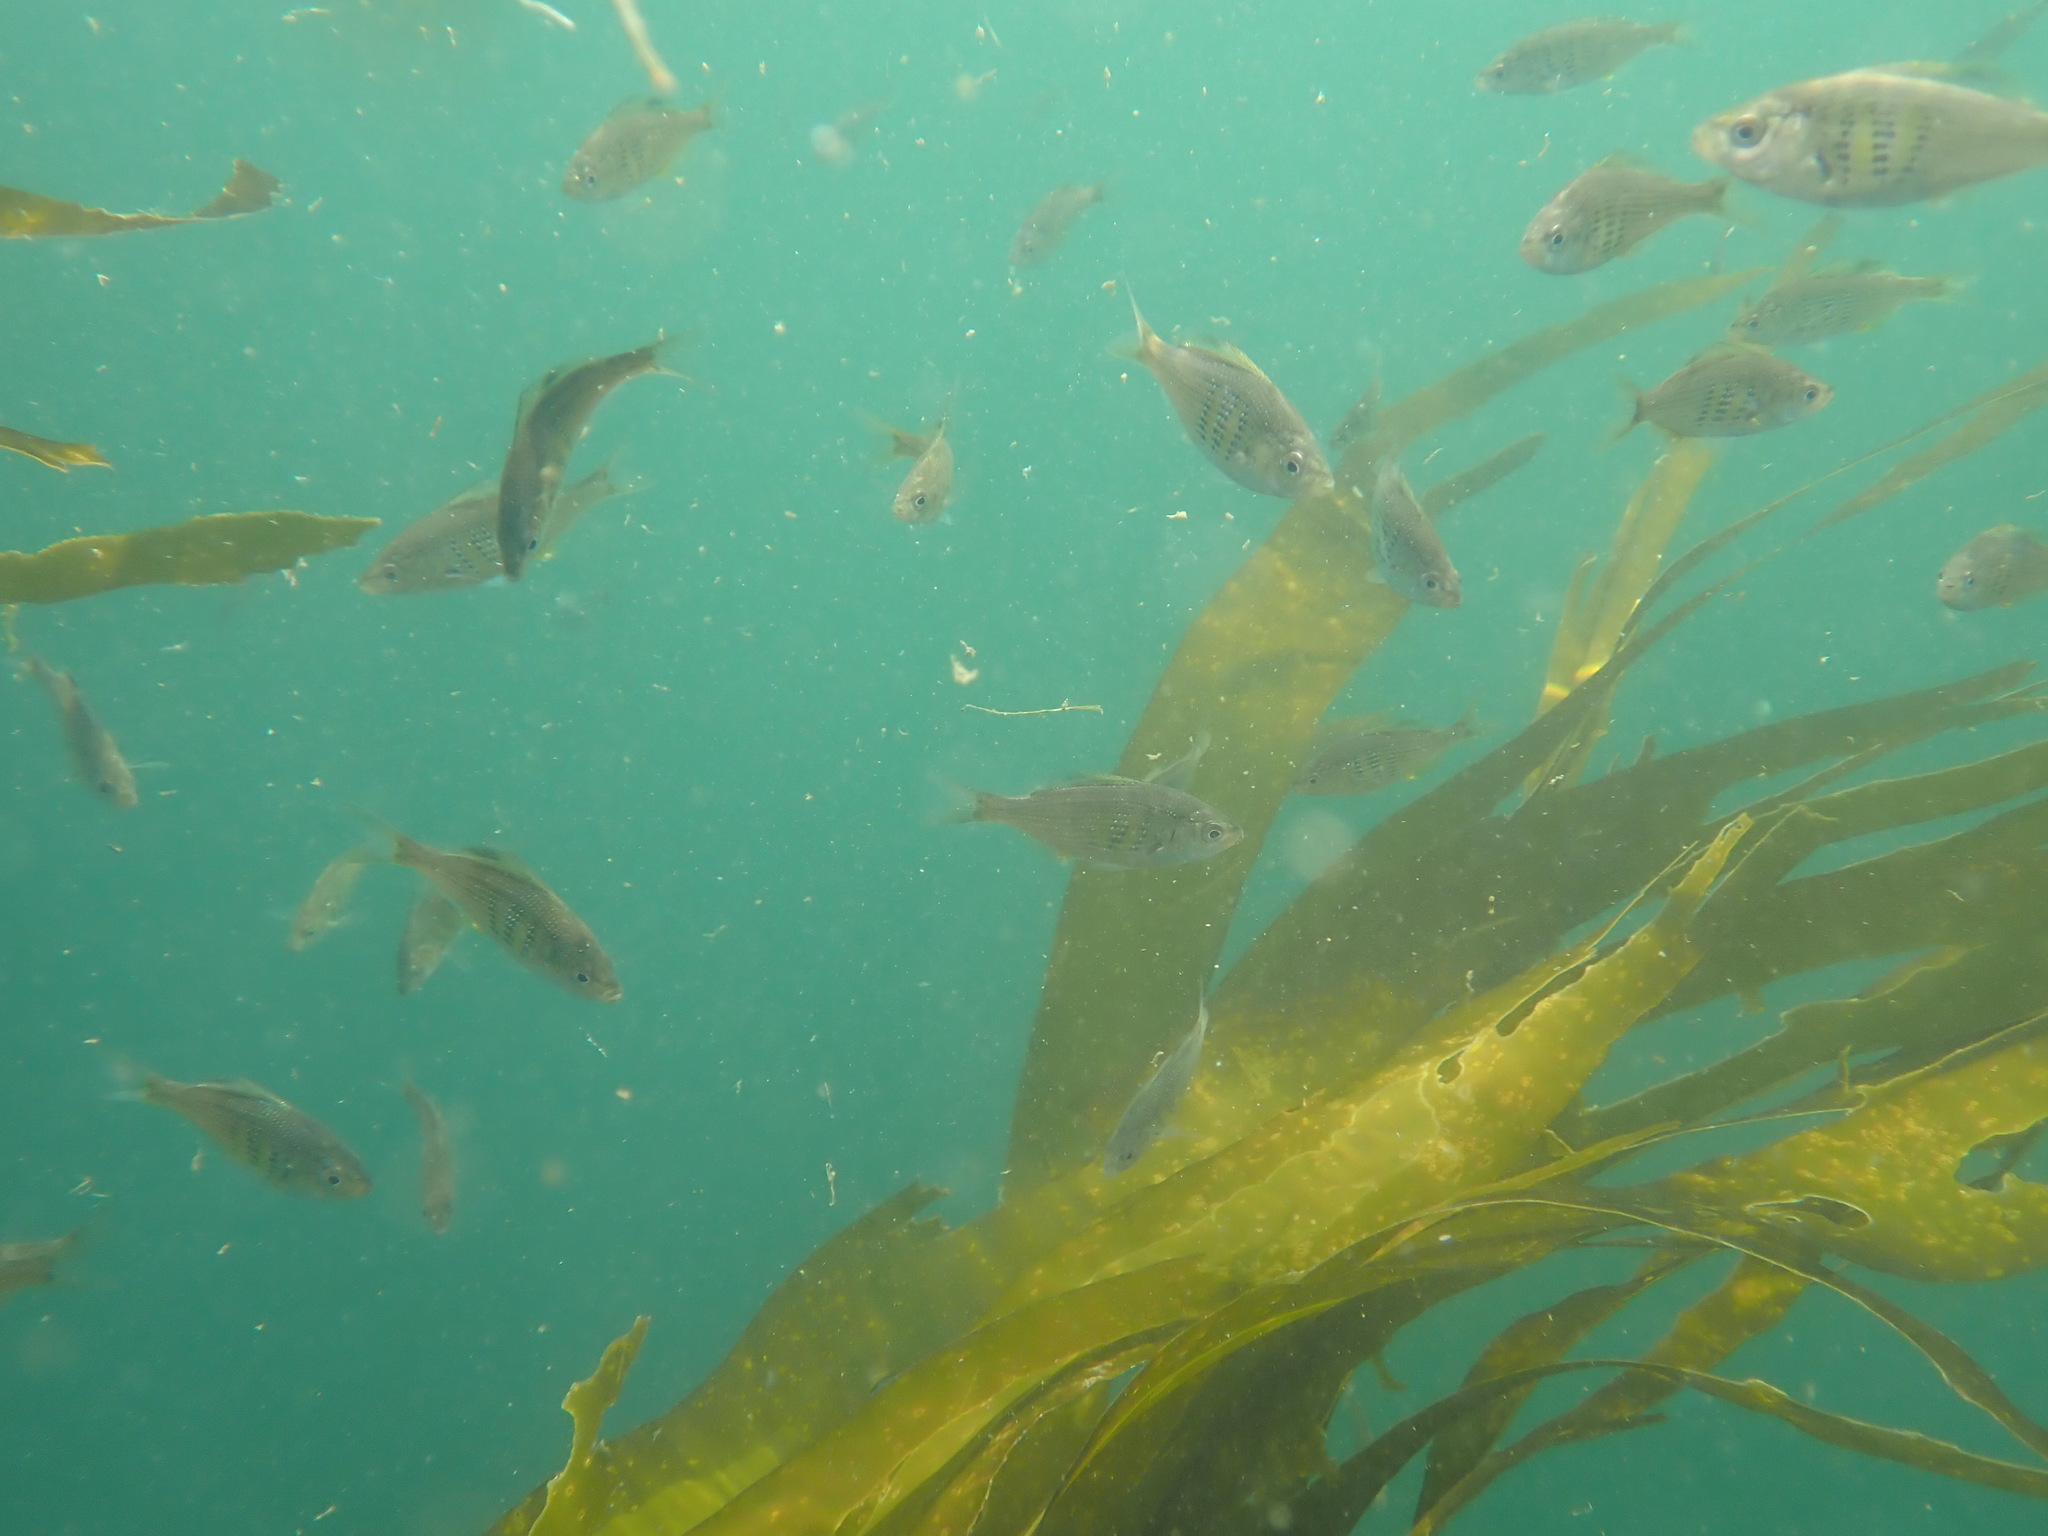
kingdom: Animalia
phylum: Chordata
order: Perciformes
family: Embiotocidae
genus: Cymatogaster
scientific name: Cymatogaster aggregata
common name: Shiner perch
